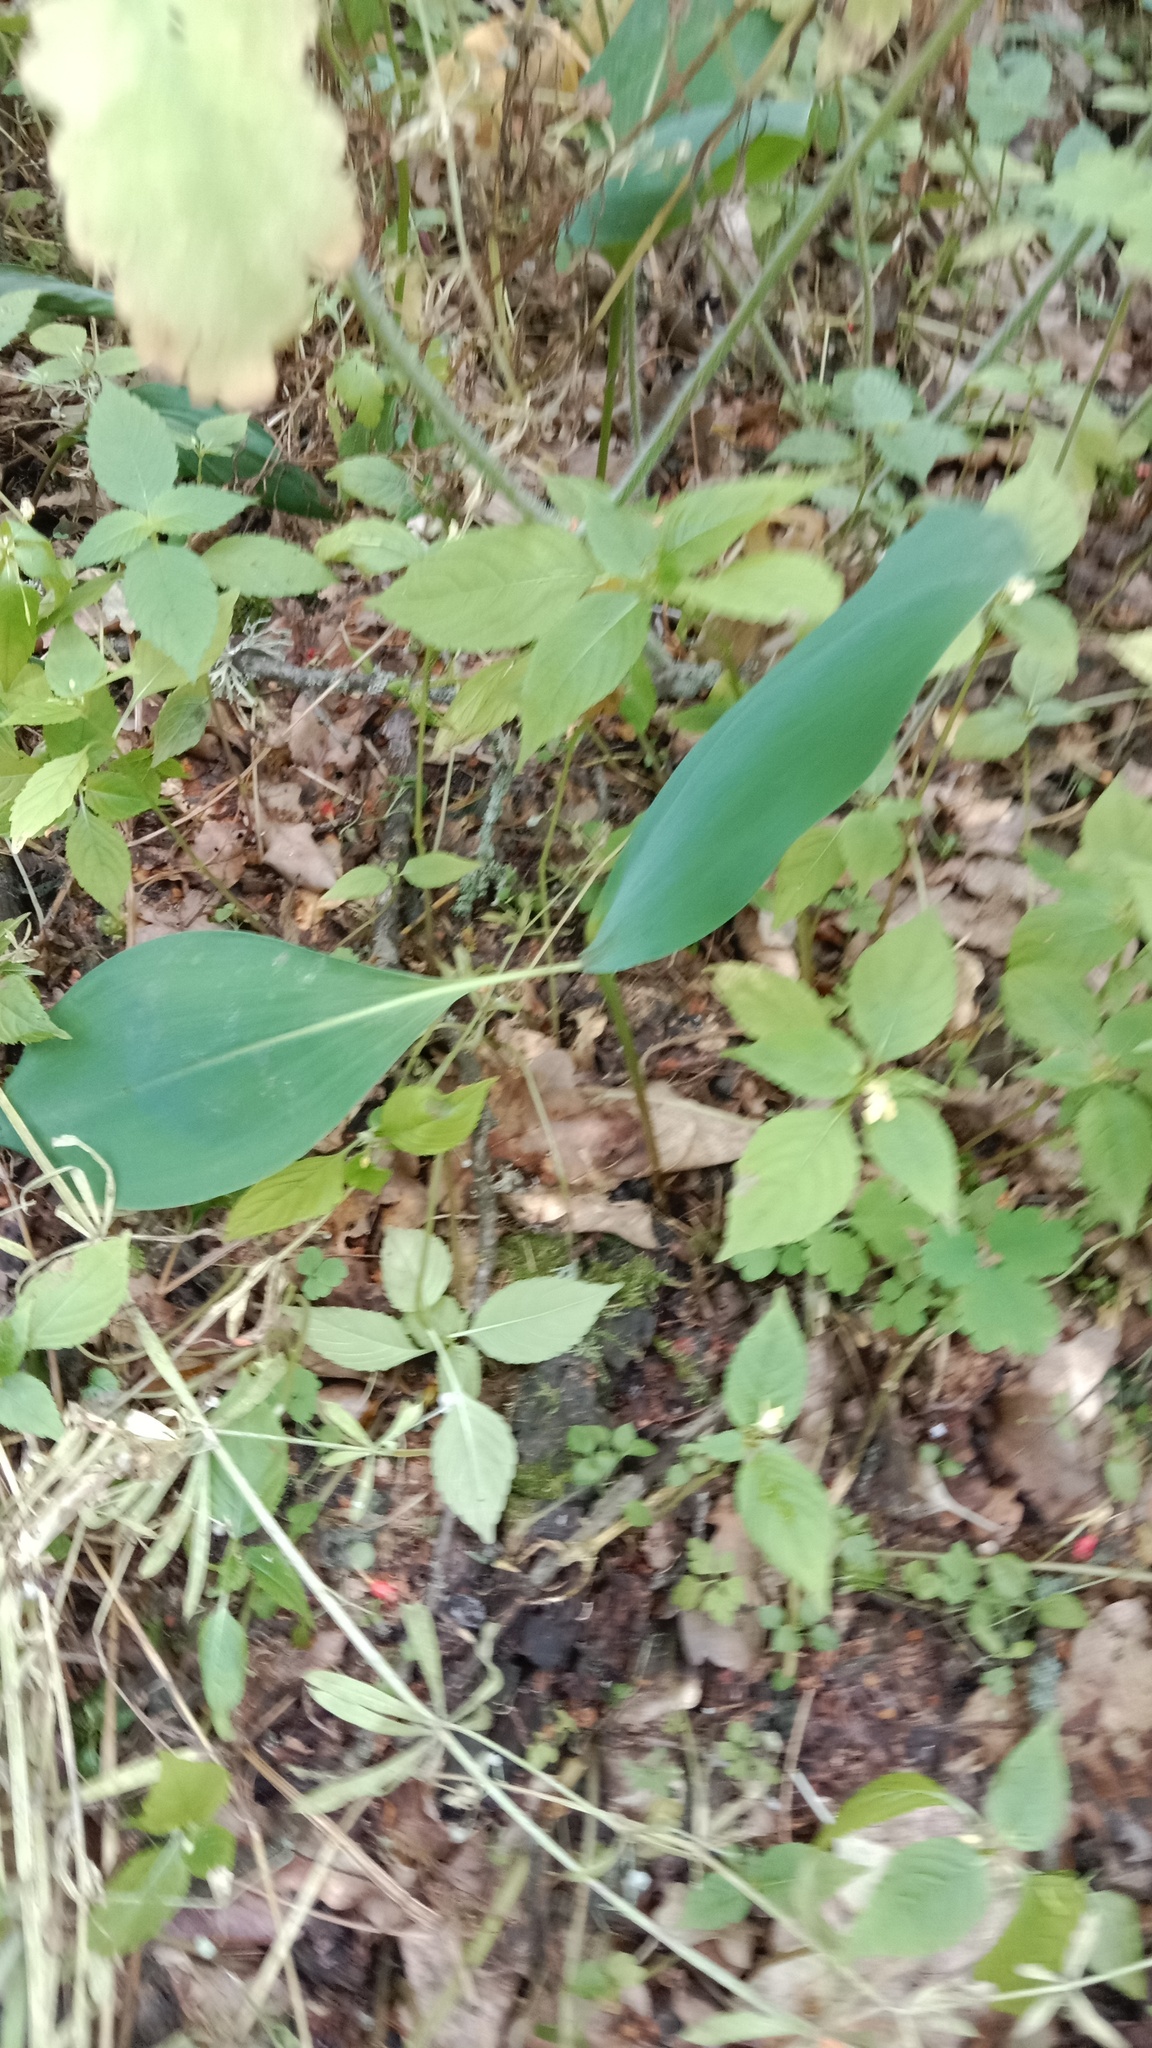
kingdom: Plantae
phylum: Tracheophyta
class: Liliopsida
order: Asparagales
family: Asparagaceae
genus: Convallaria
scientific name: Convallaria majalis
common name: Lily-of-the-valley
